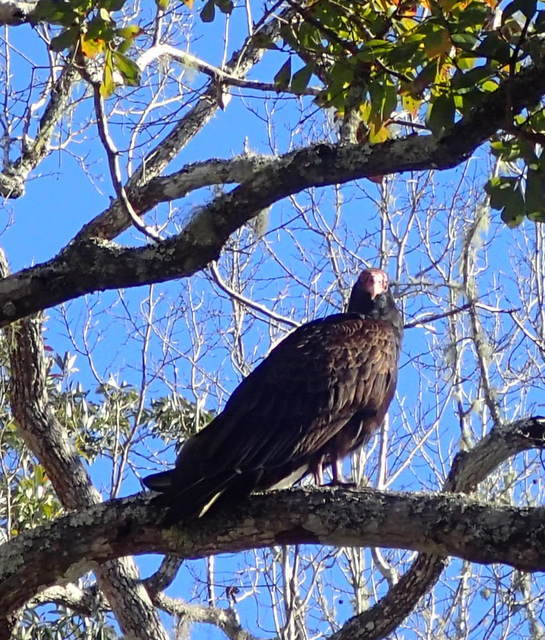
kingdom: Animalia
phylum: Chordata
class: Aves
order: Accipitriformes
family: Cathartidae
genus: Cathartes
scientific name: Cathartes aura
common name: Turkey vulture
